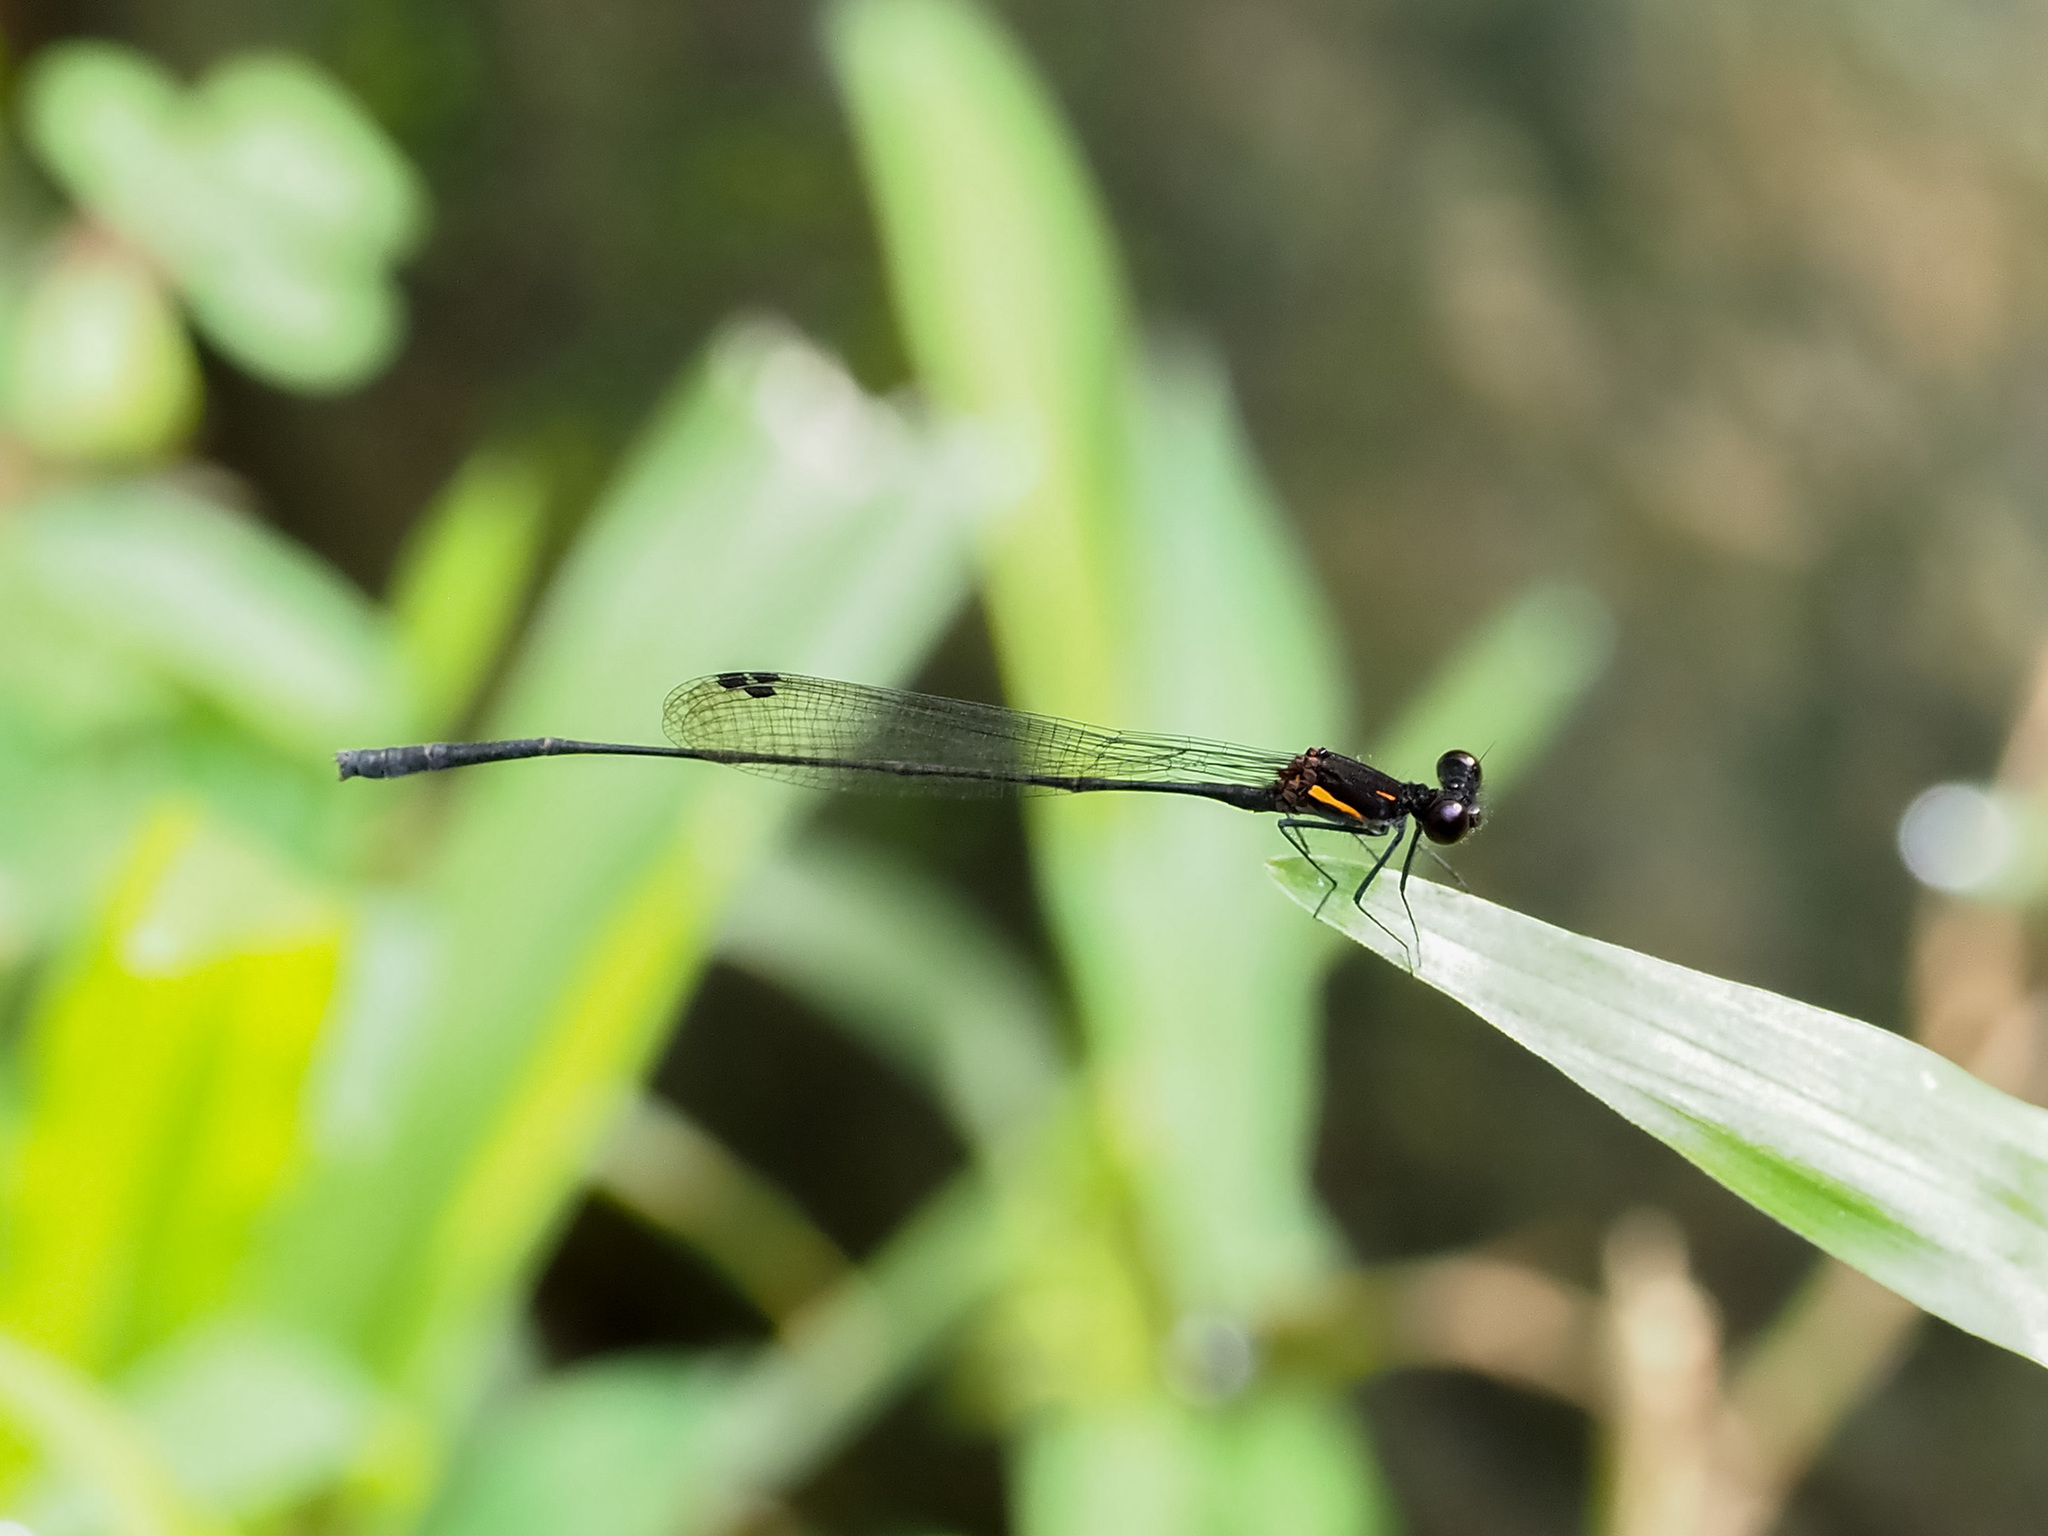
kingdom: Animalia
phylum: Arthropoda
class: Insecta
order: Odonata
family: Platycnemididae
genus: Prodasineura
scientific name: Prodasineura verticalis
